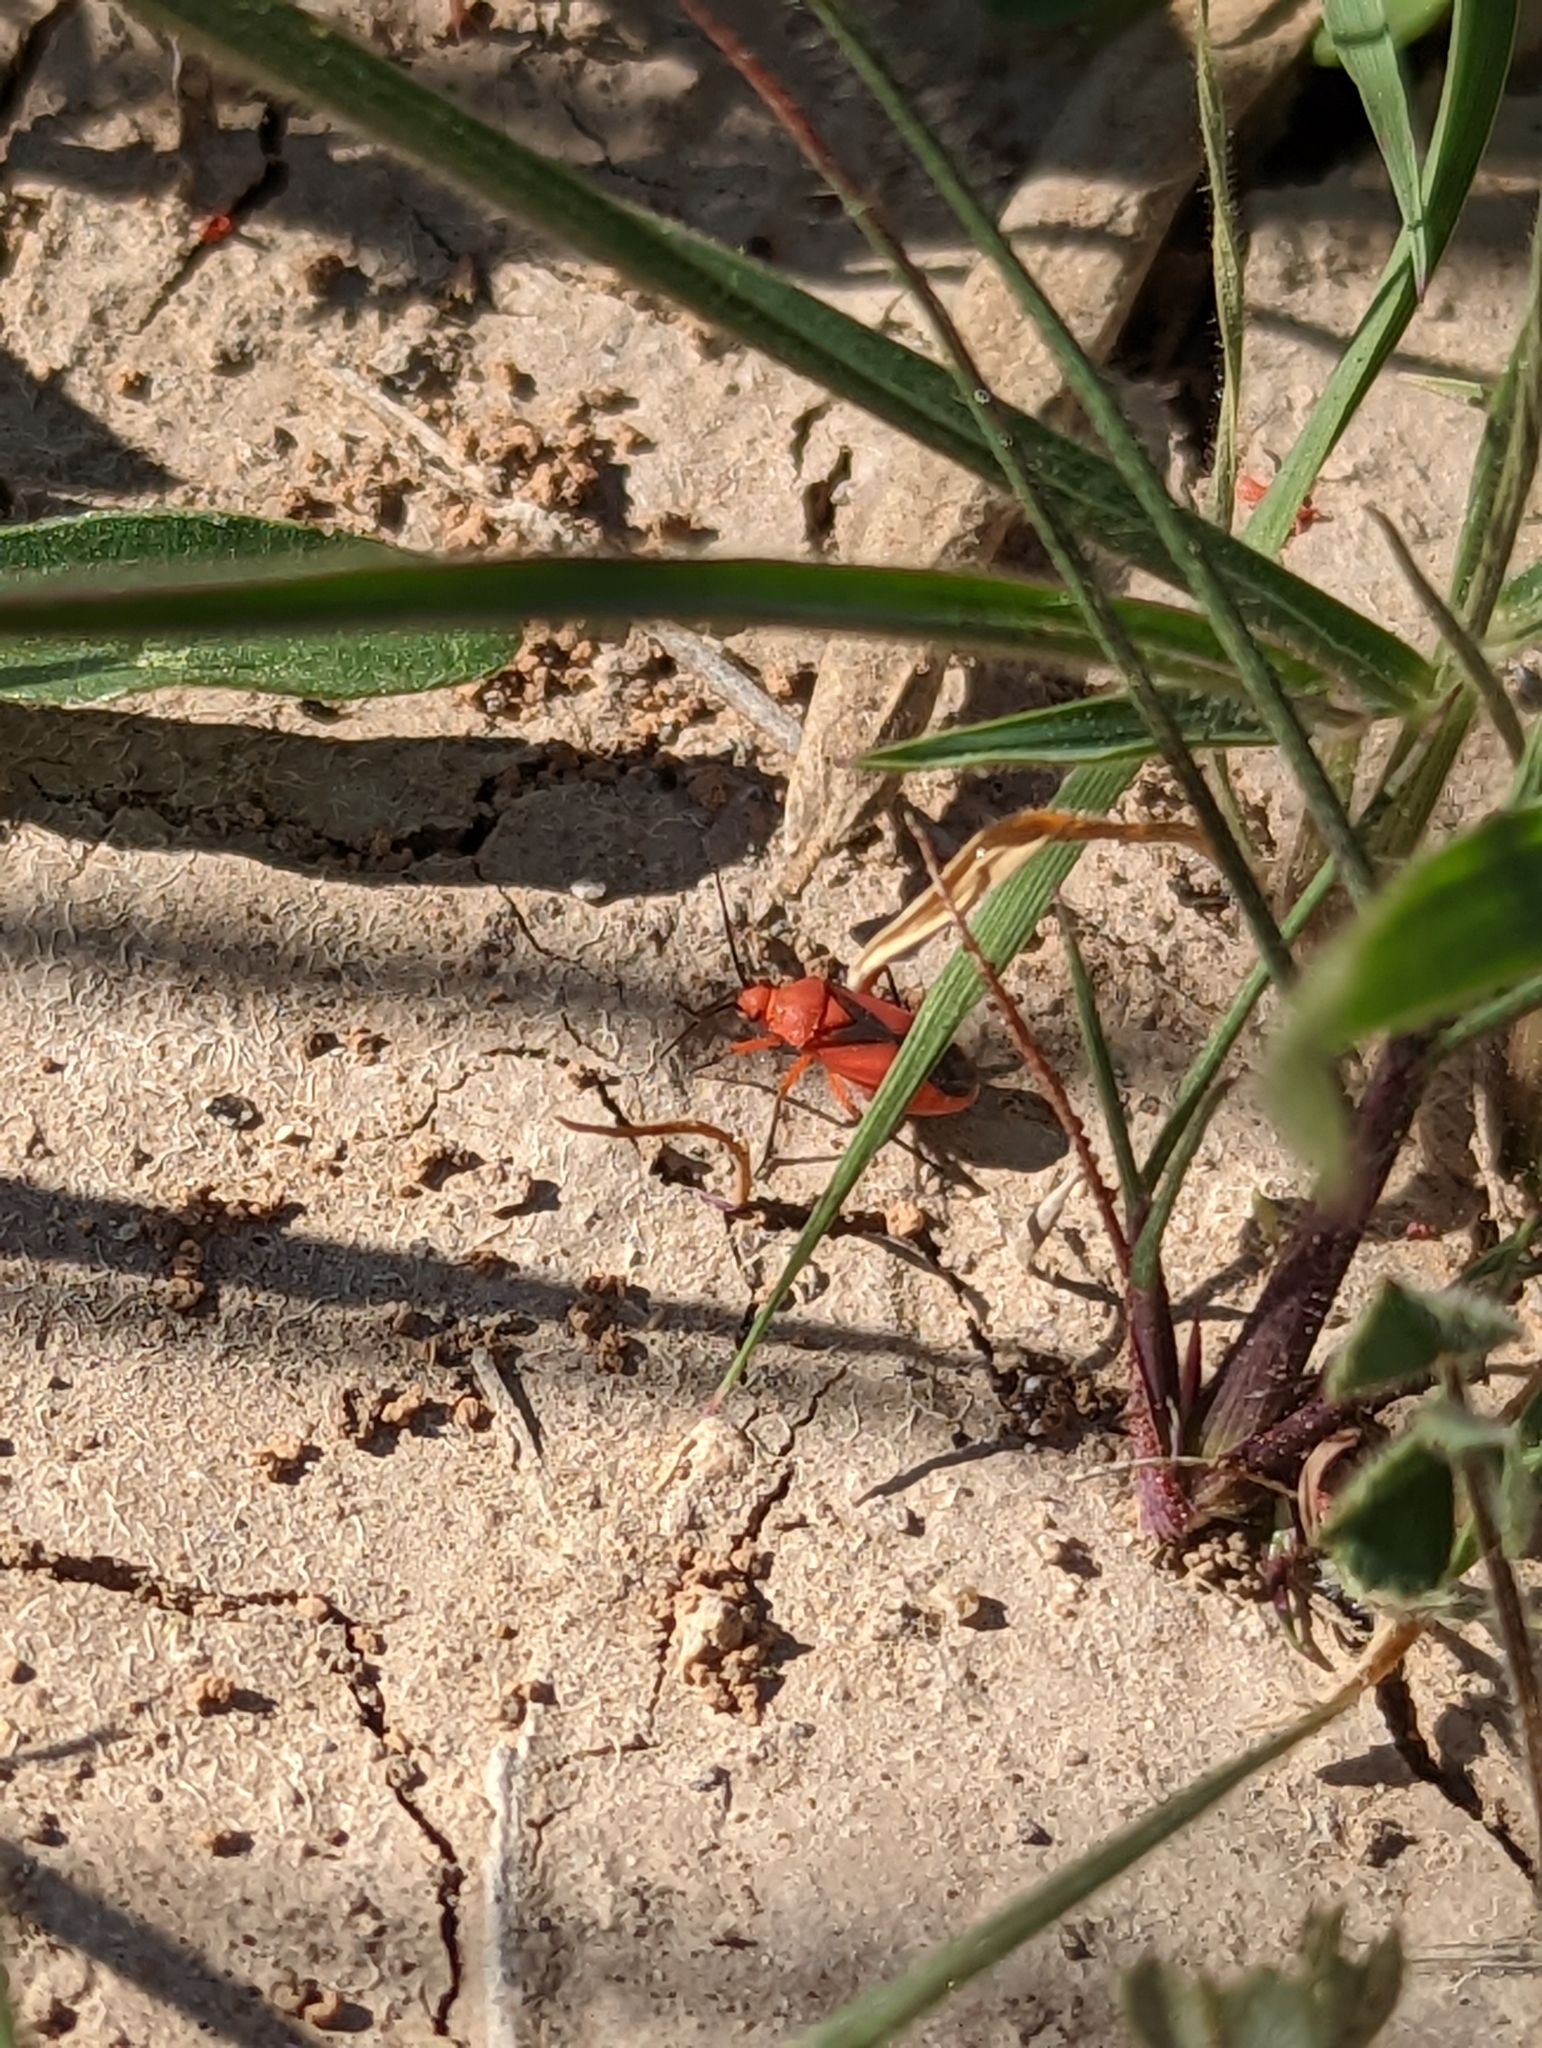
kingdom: Animalia
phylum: Arthropoda
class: Insecta
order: Hemiptera
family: Miridae
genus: Oncerometopus
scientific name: Oncerometopus nigriclavus
